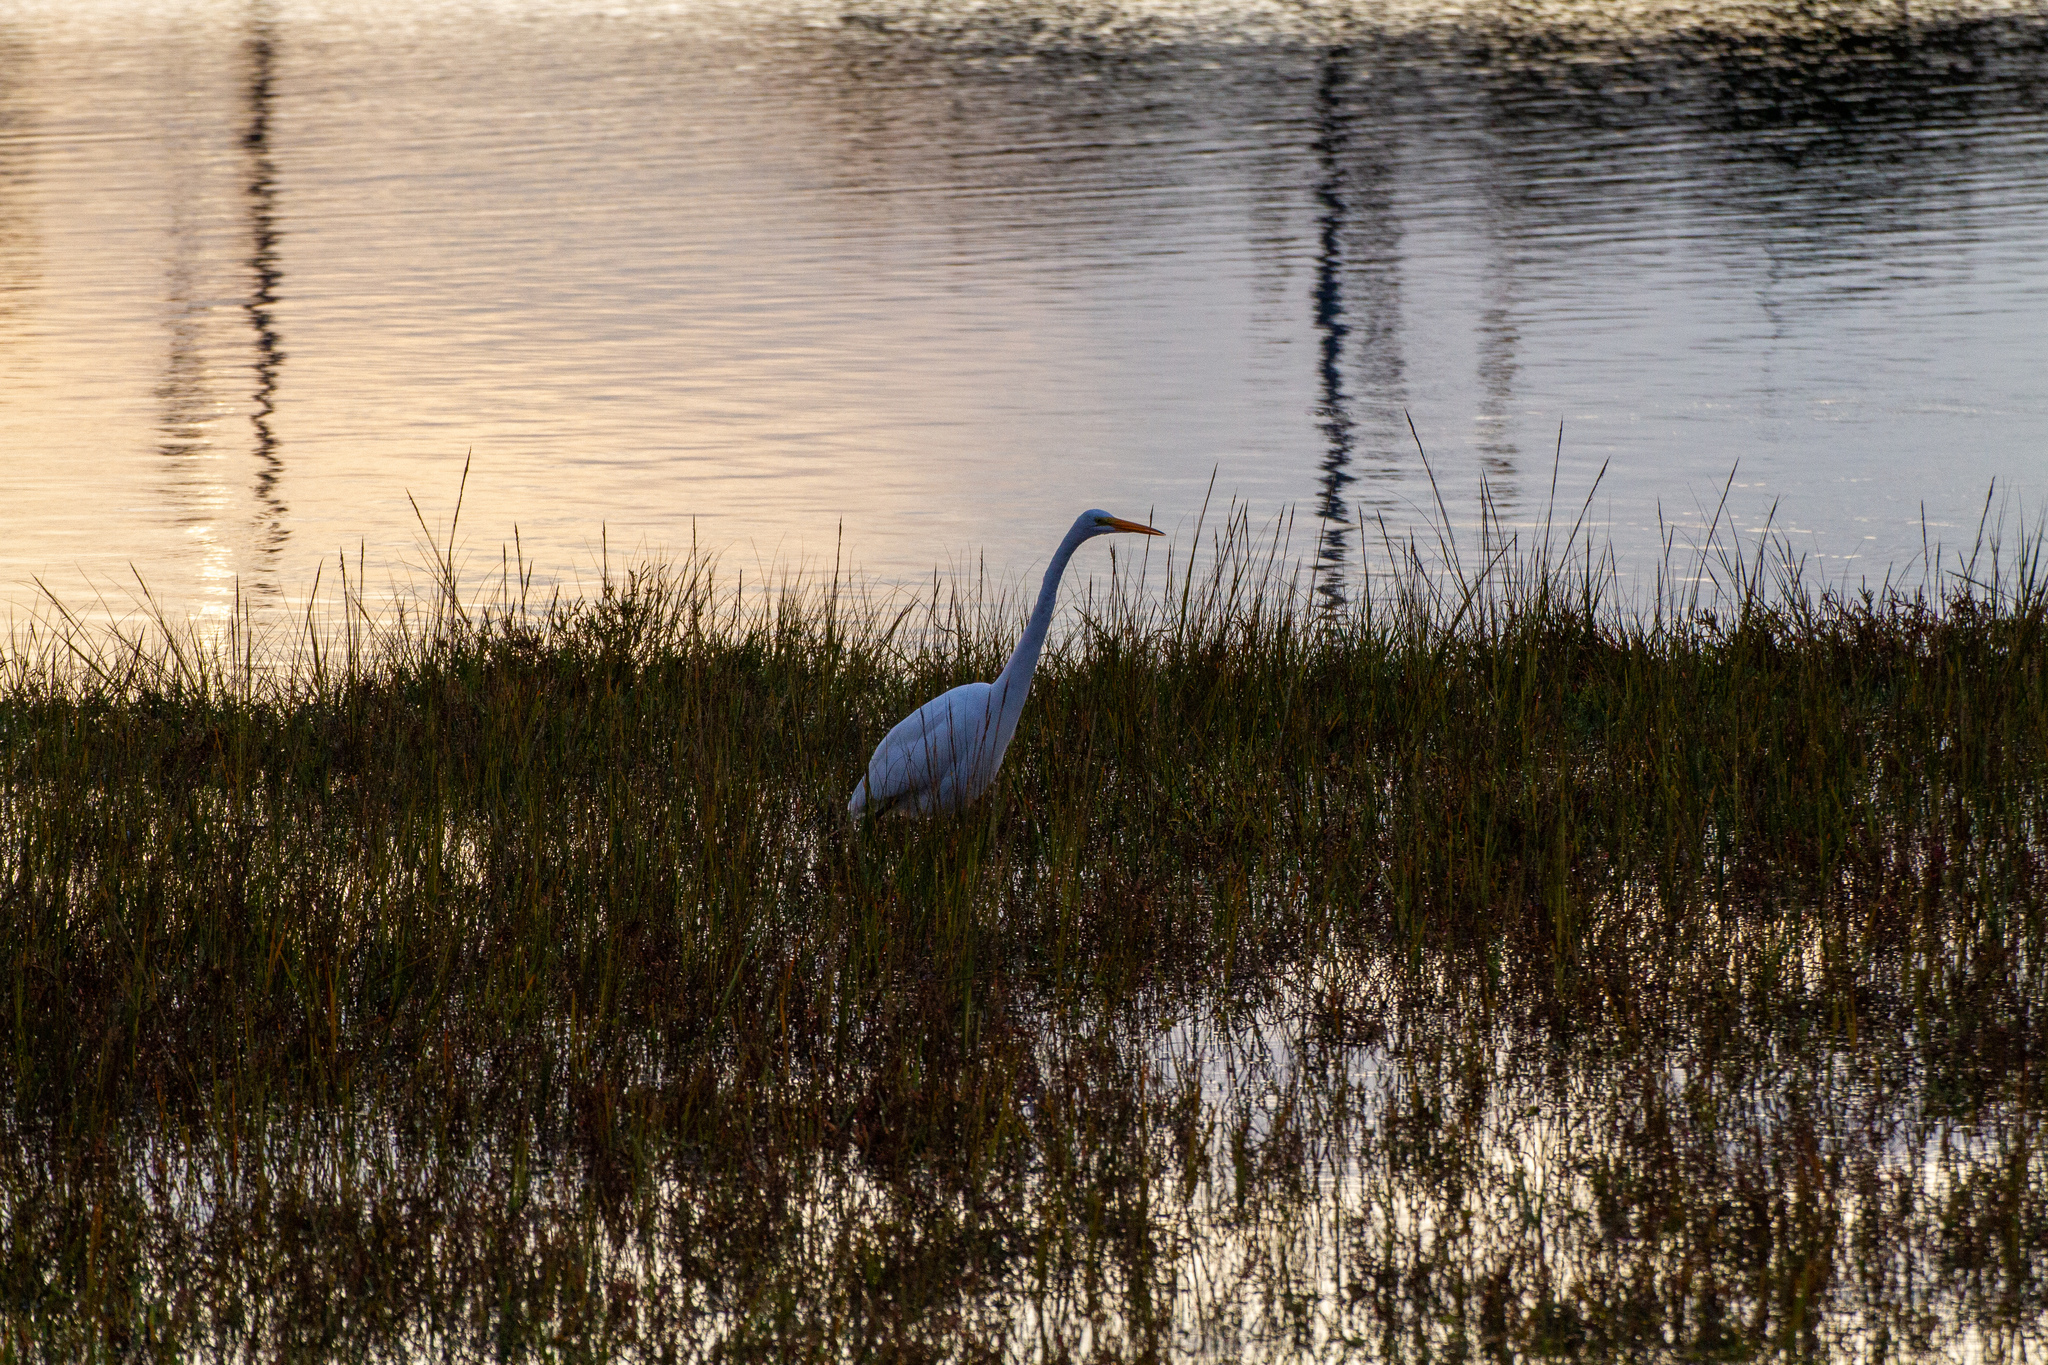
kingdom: Animalia
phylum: Chordata
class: Aves
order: Pelecaniformes
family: Ardeidae
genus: Ardea
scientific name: Ardea alba
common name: Great egret
